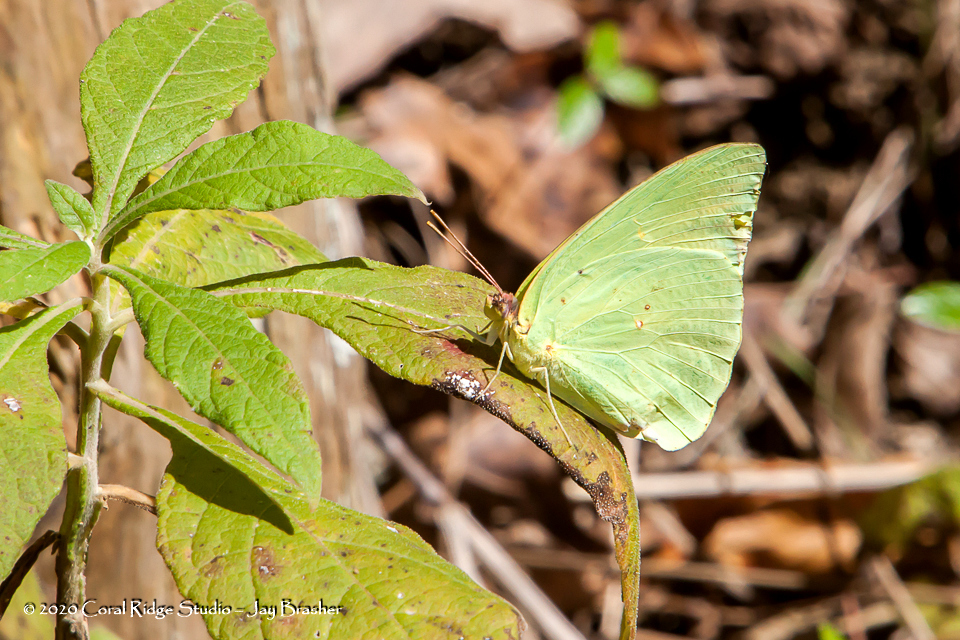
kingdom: Animalia
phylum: Arthropoda
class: Insecta
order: Lepidoptera
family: Pieridae
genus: Phoebis
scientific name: Phoebis sennae
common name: Cloudless sulphur
